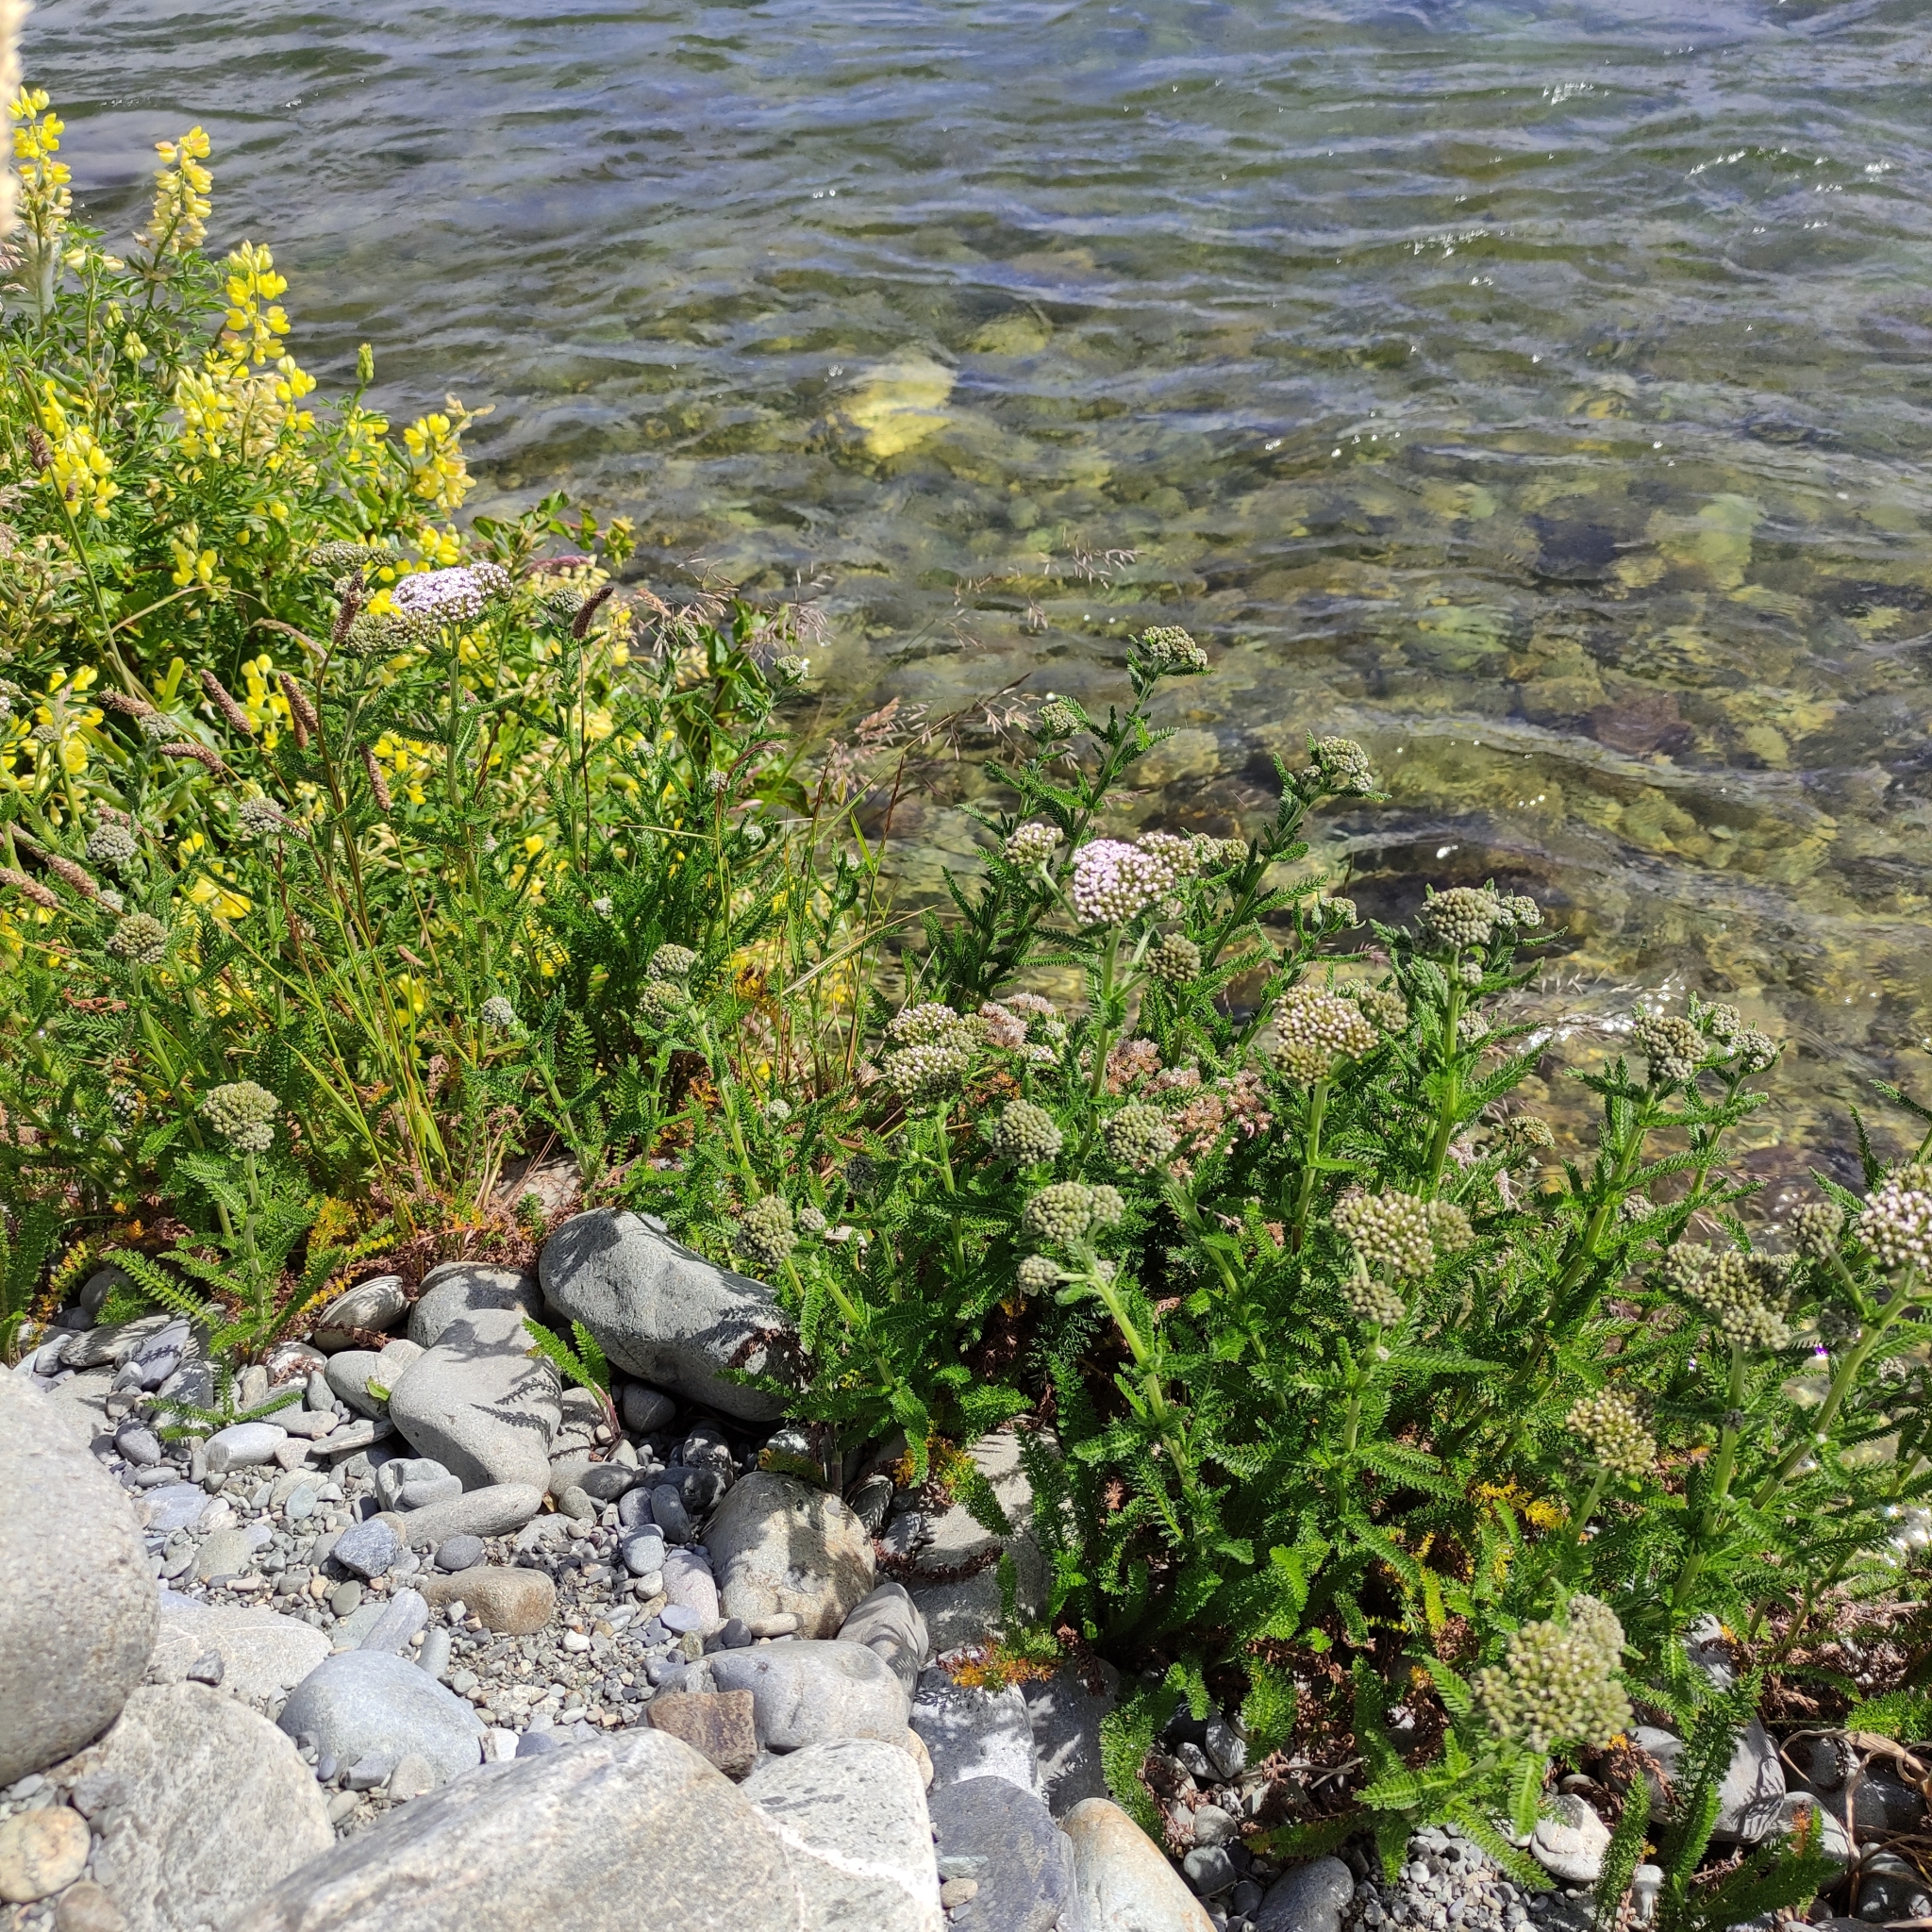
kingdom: Plantae
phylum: Tracheophyta
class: Magnoliopsida
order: Asterales
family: Asteraceae
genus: Achillea
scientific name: Achillea millefolium
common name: Yarrow
